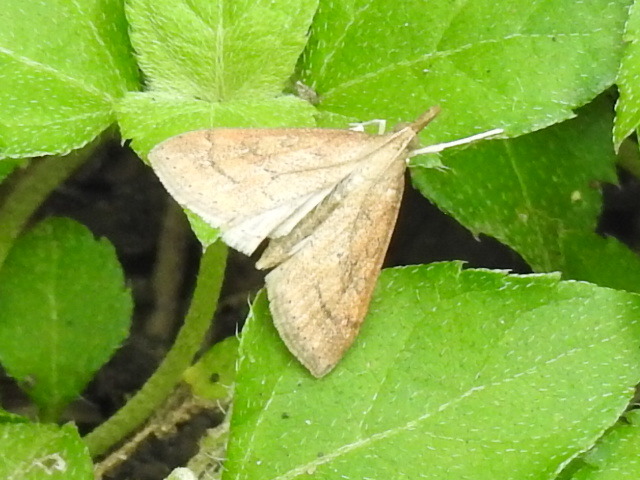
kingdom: Animalia
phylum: Arthropoda
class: Insecta
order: Lepidoptera
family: Crambidae
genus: Udea
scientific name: Udea rubigalis
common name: Celery leaftier moth
